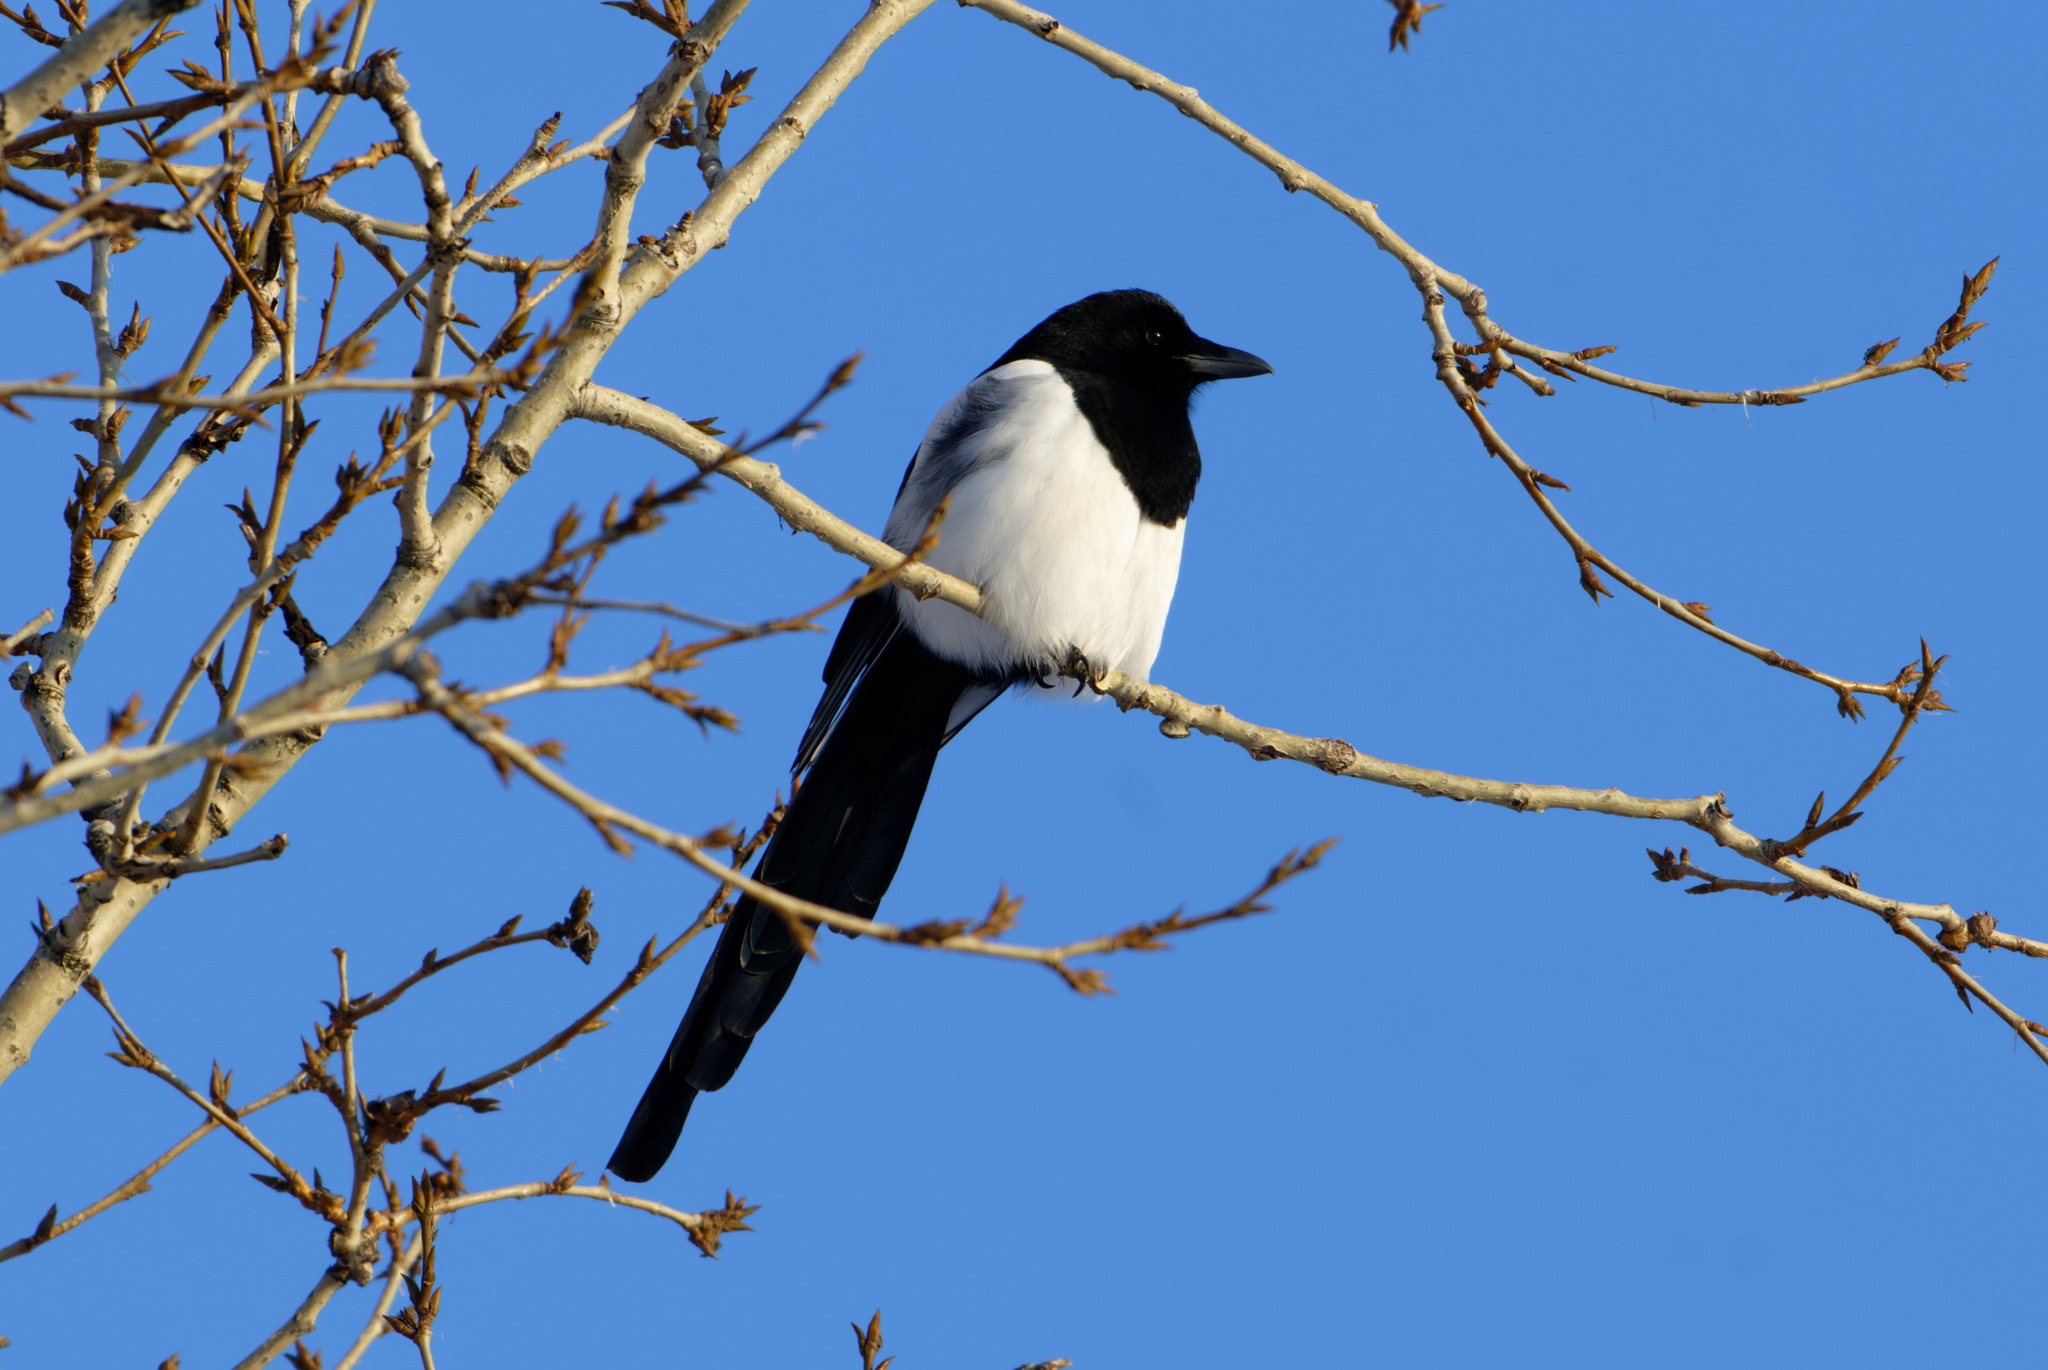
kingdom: Animalia
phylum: Chordata
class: Aves
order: Passeriformes
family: Corvidae
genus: Pica
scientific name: Pica pica
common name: Eurasian magpie
